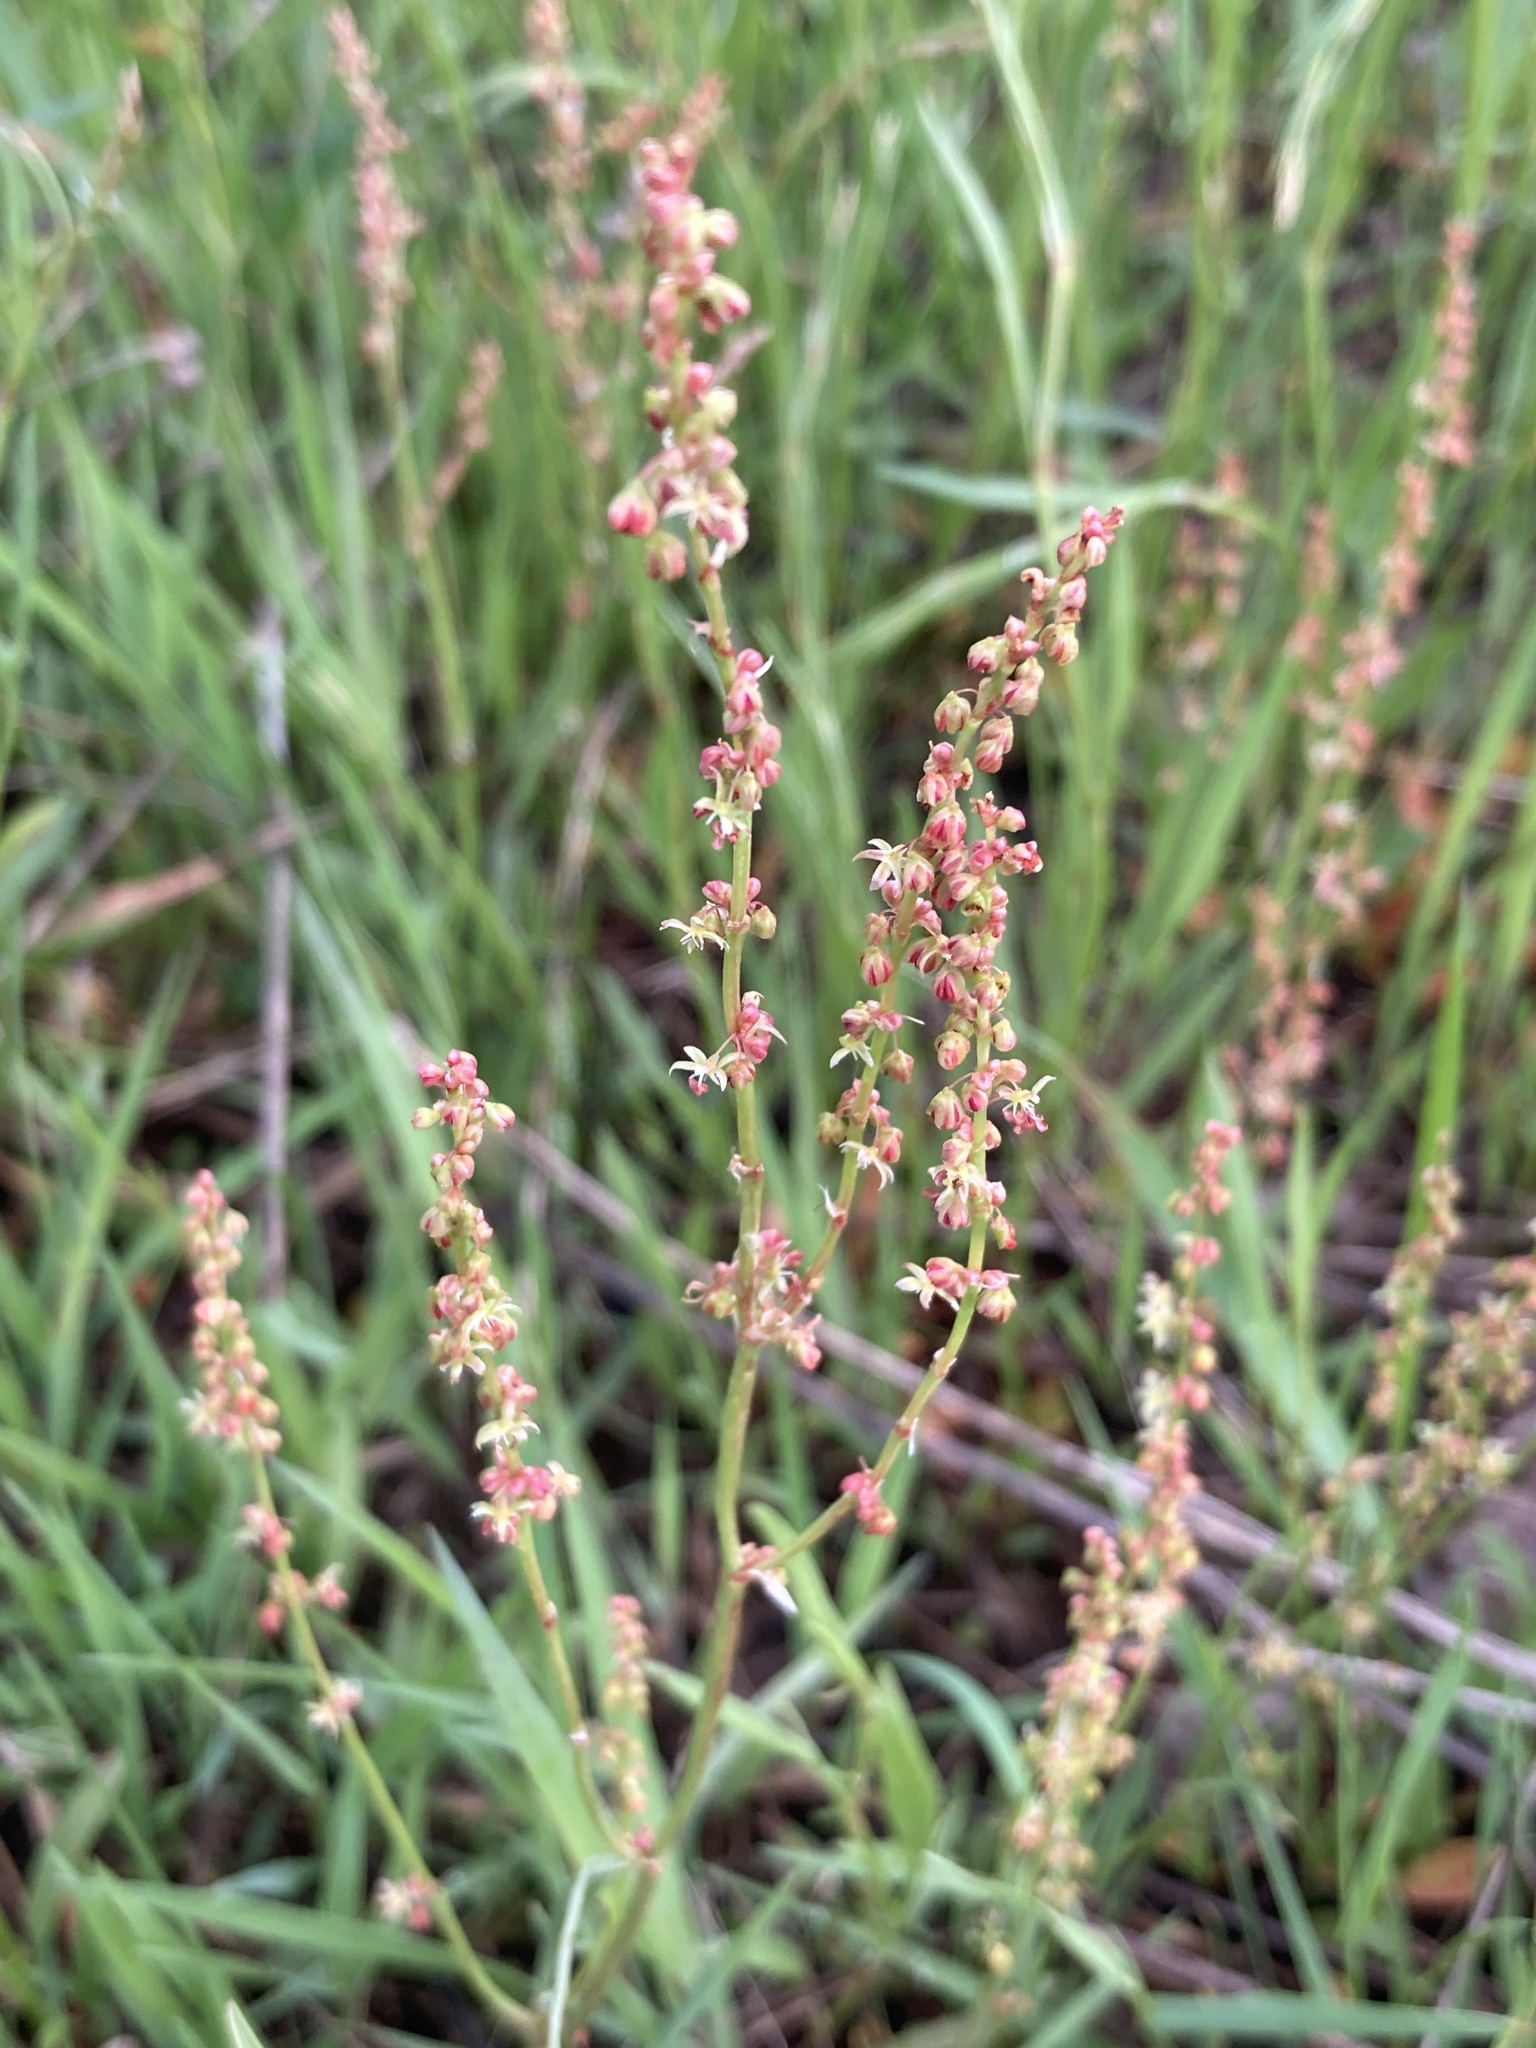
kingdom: Plantae
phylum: Tracheophyta
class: Magnoliopsida
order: Caryophyllales
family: Polygonaceae
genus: Rumex
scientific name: Rumex acetosella
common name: Common sheep sorrel
